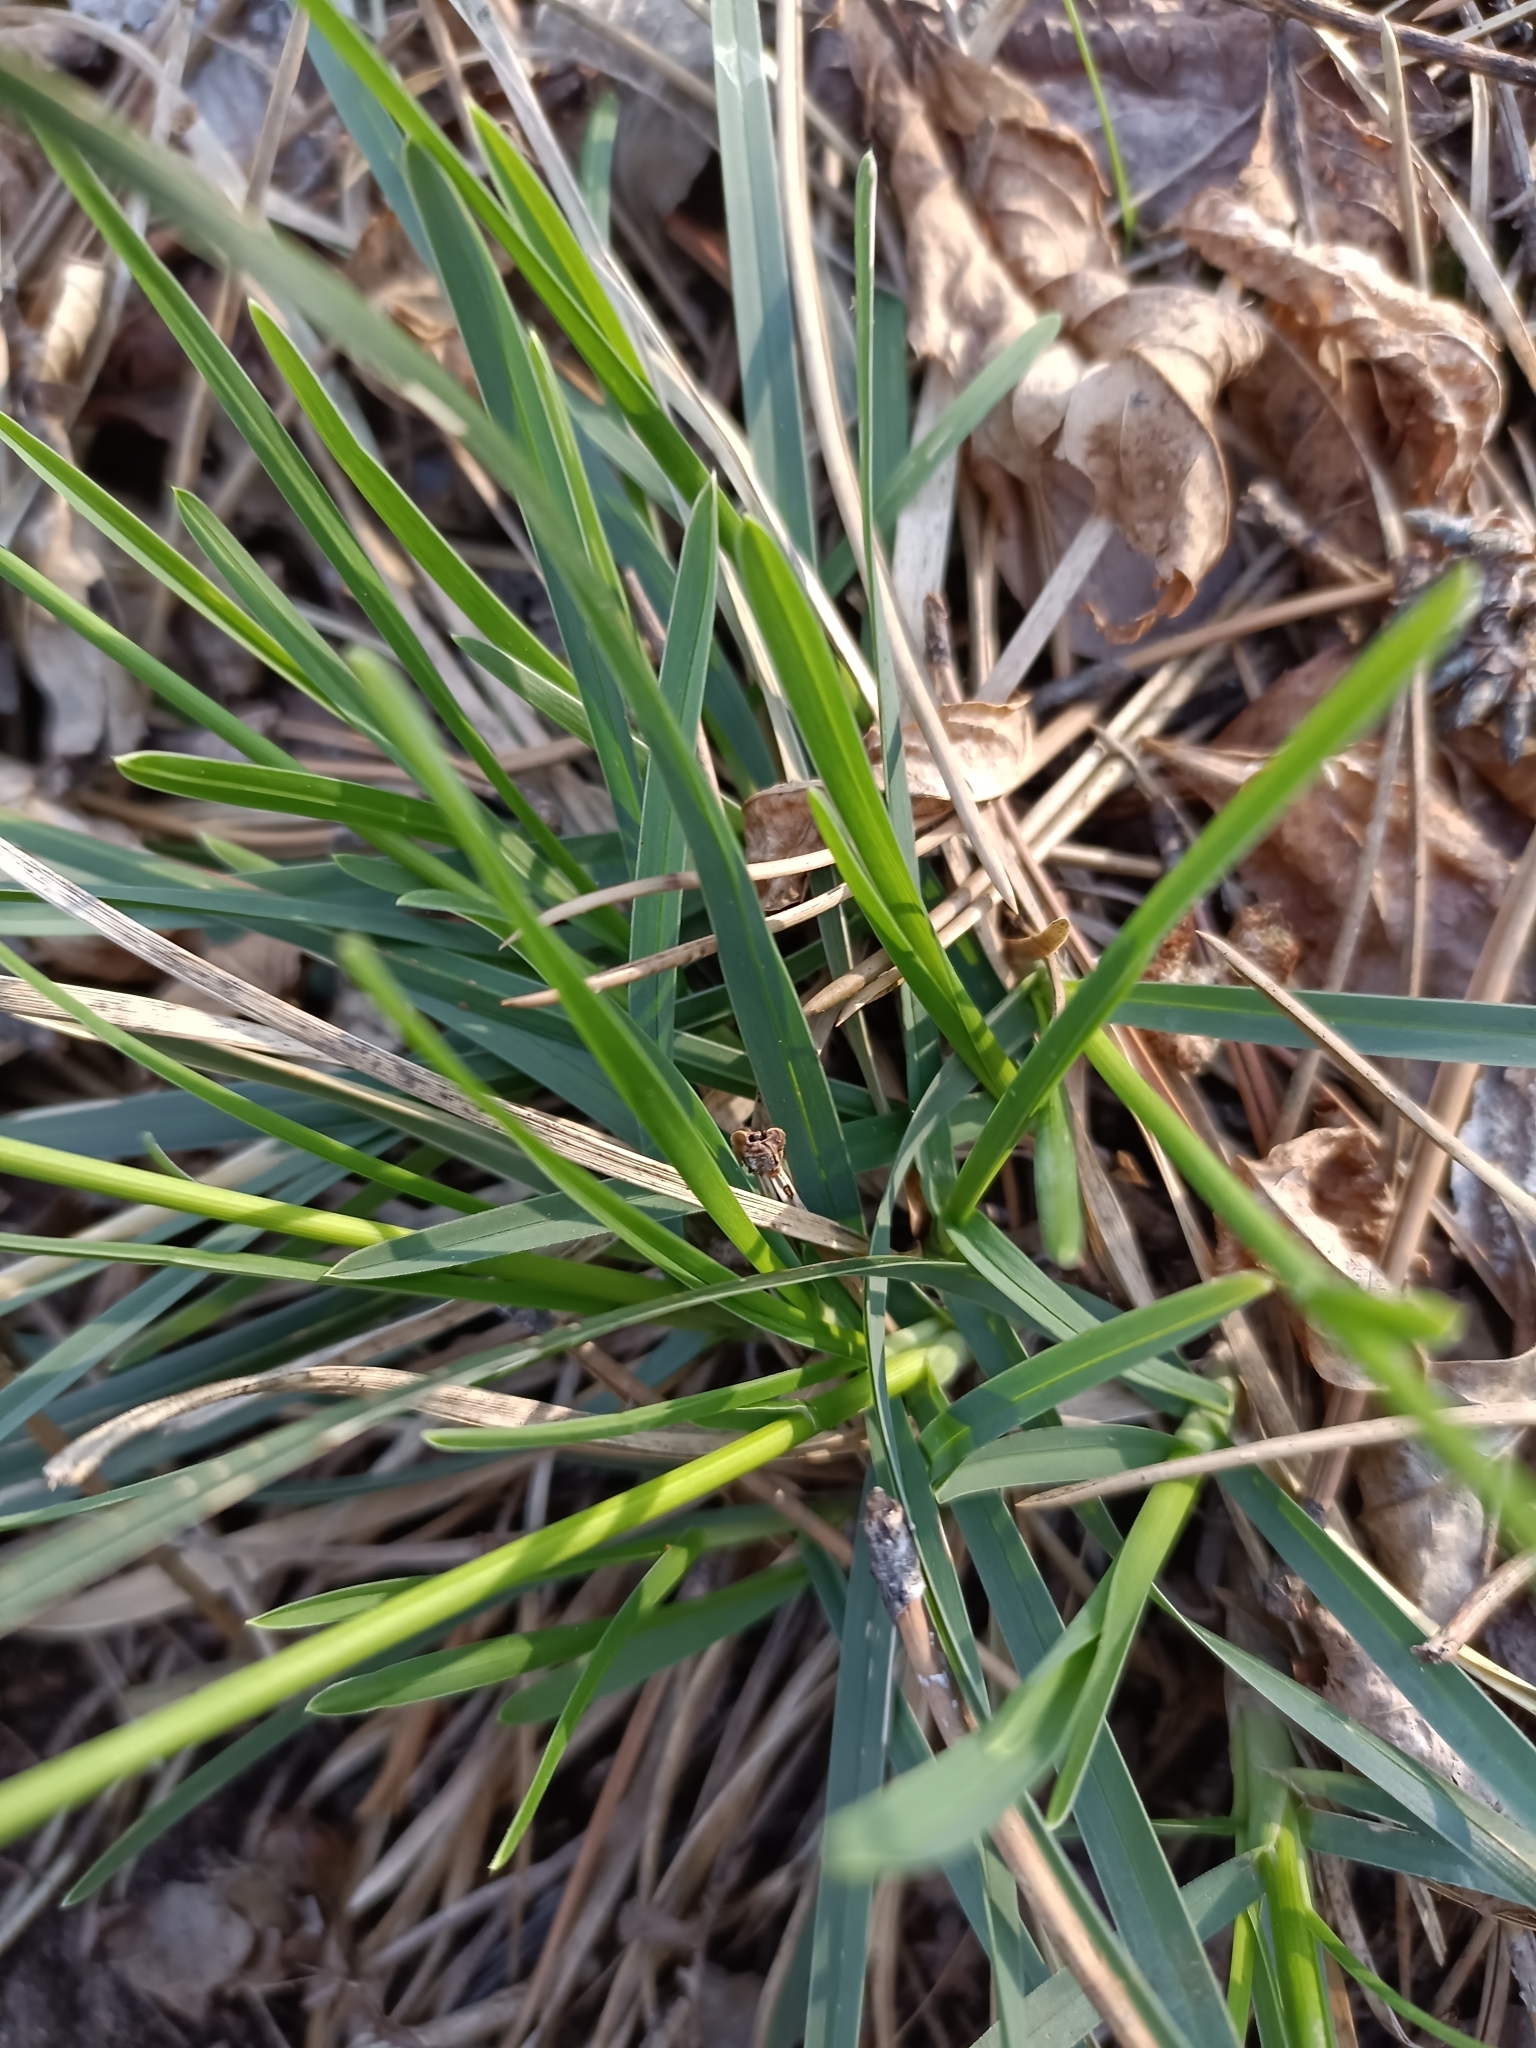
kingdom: Plantae
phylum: Tracheophyta
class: Liliopsida
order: Poales
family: Poaceae
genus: Sesleria
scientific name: Sesleria caerulea
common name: Blue moor-grass
